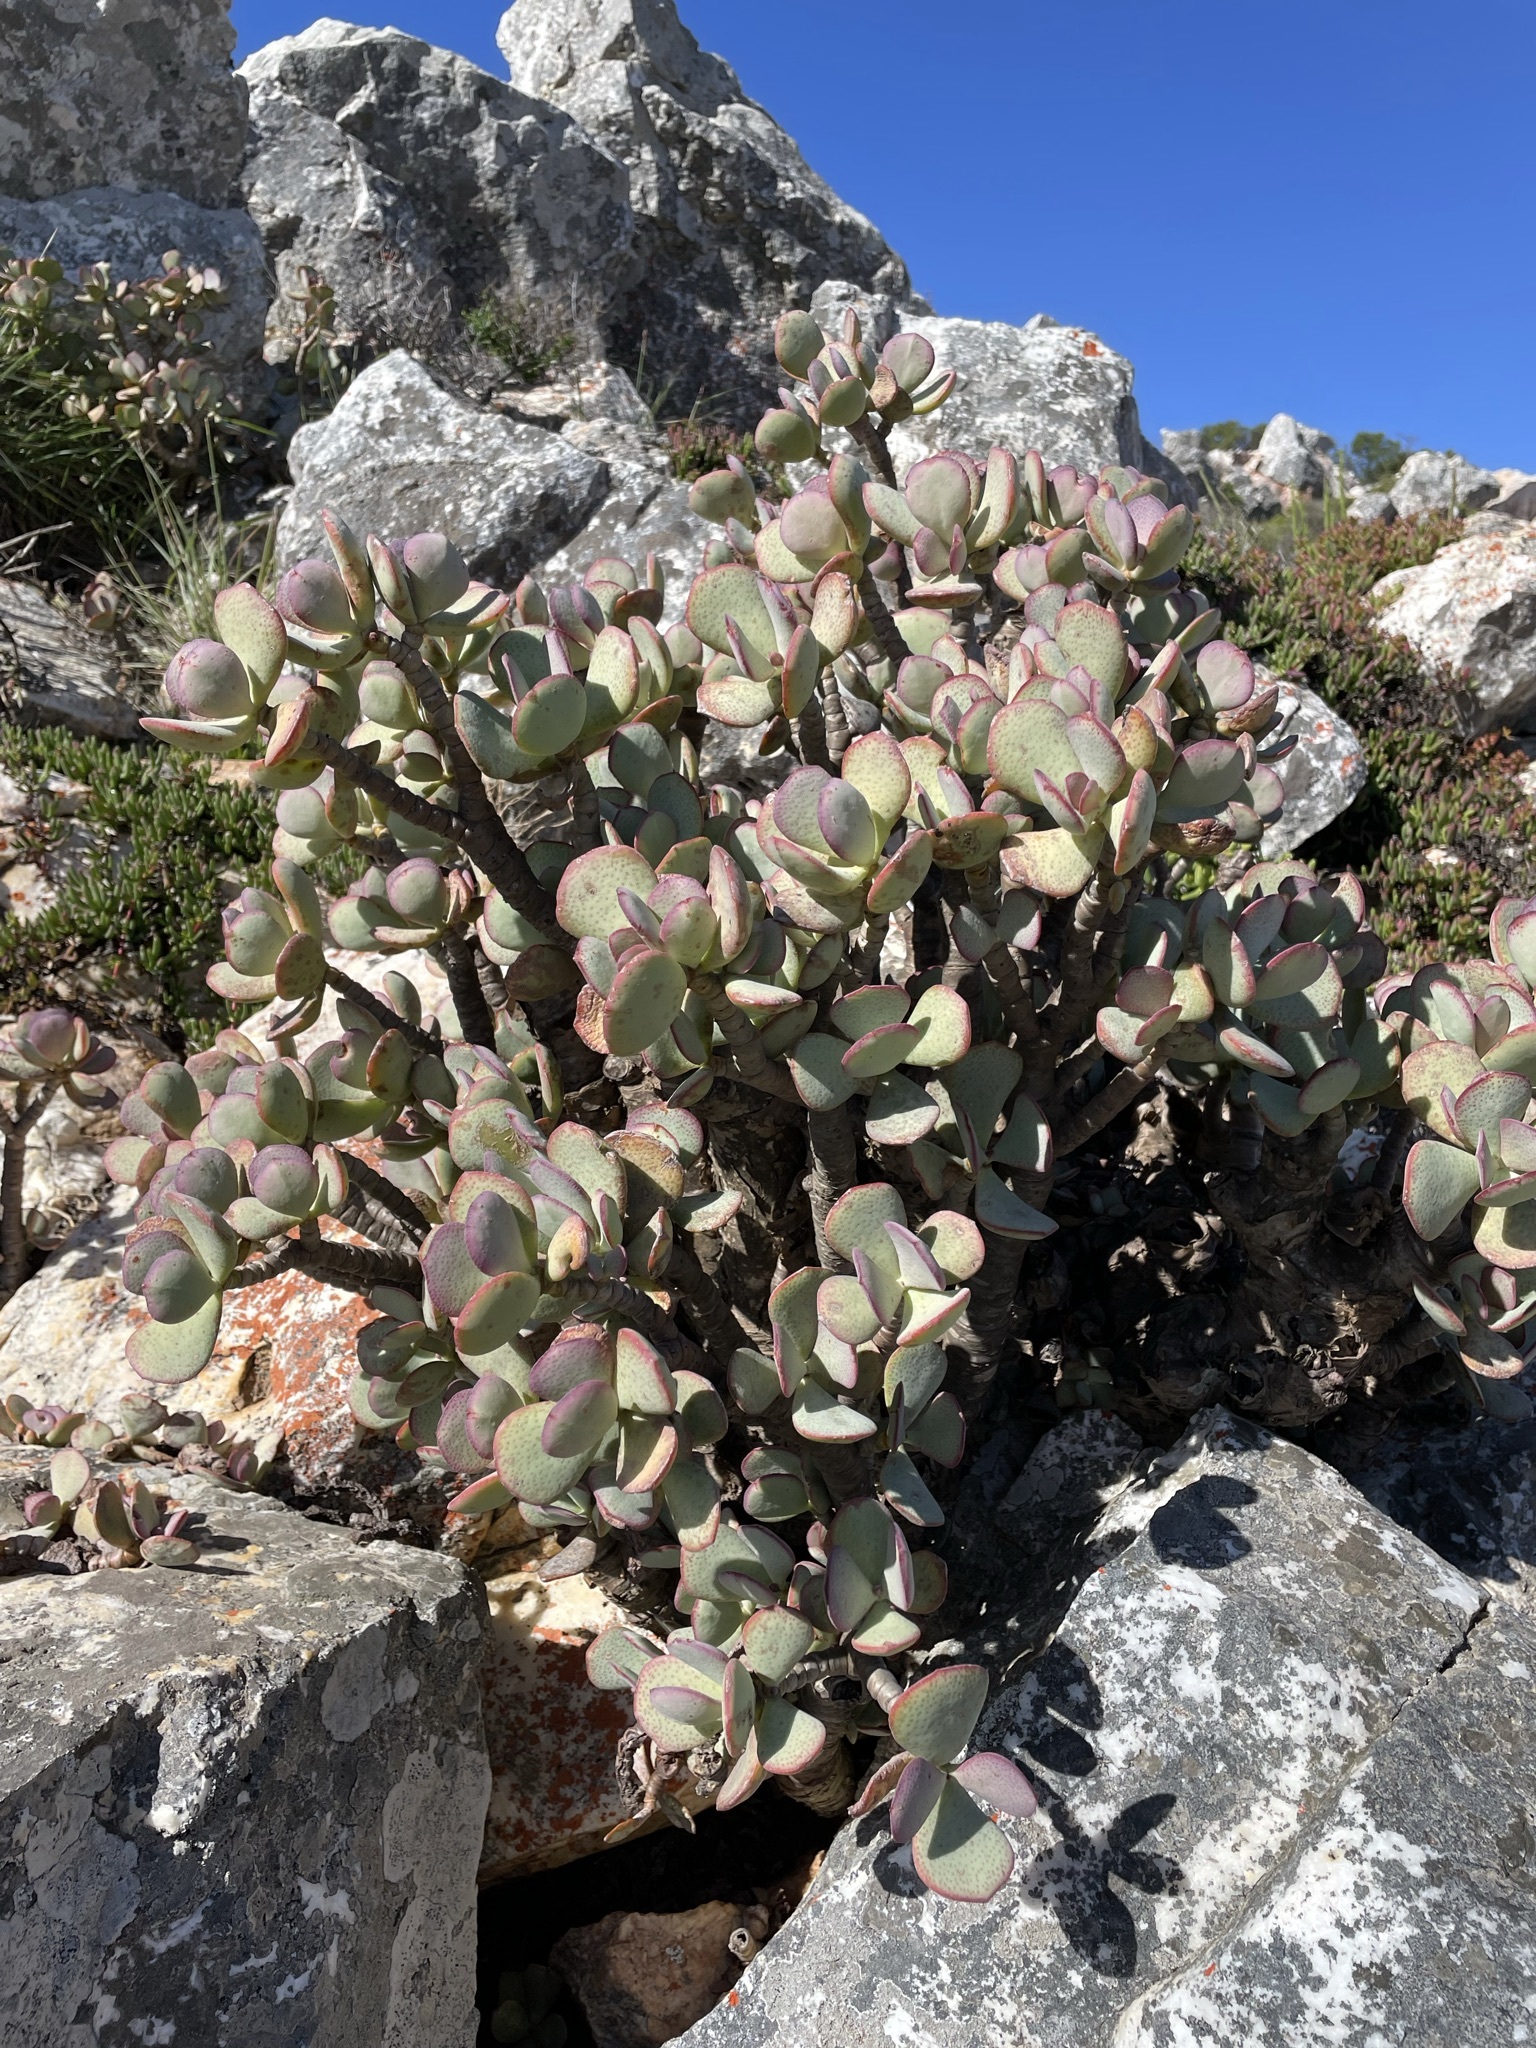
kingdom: Plantae
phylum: Tracheophyta
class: Magnoliopsida
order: Saxifragales
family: Crassulaceae
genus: Crassula
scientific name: Crassula arborescens
